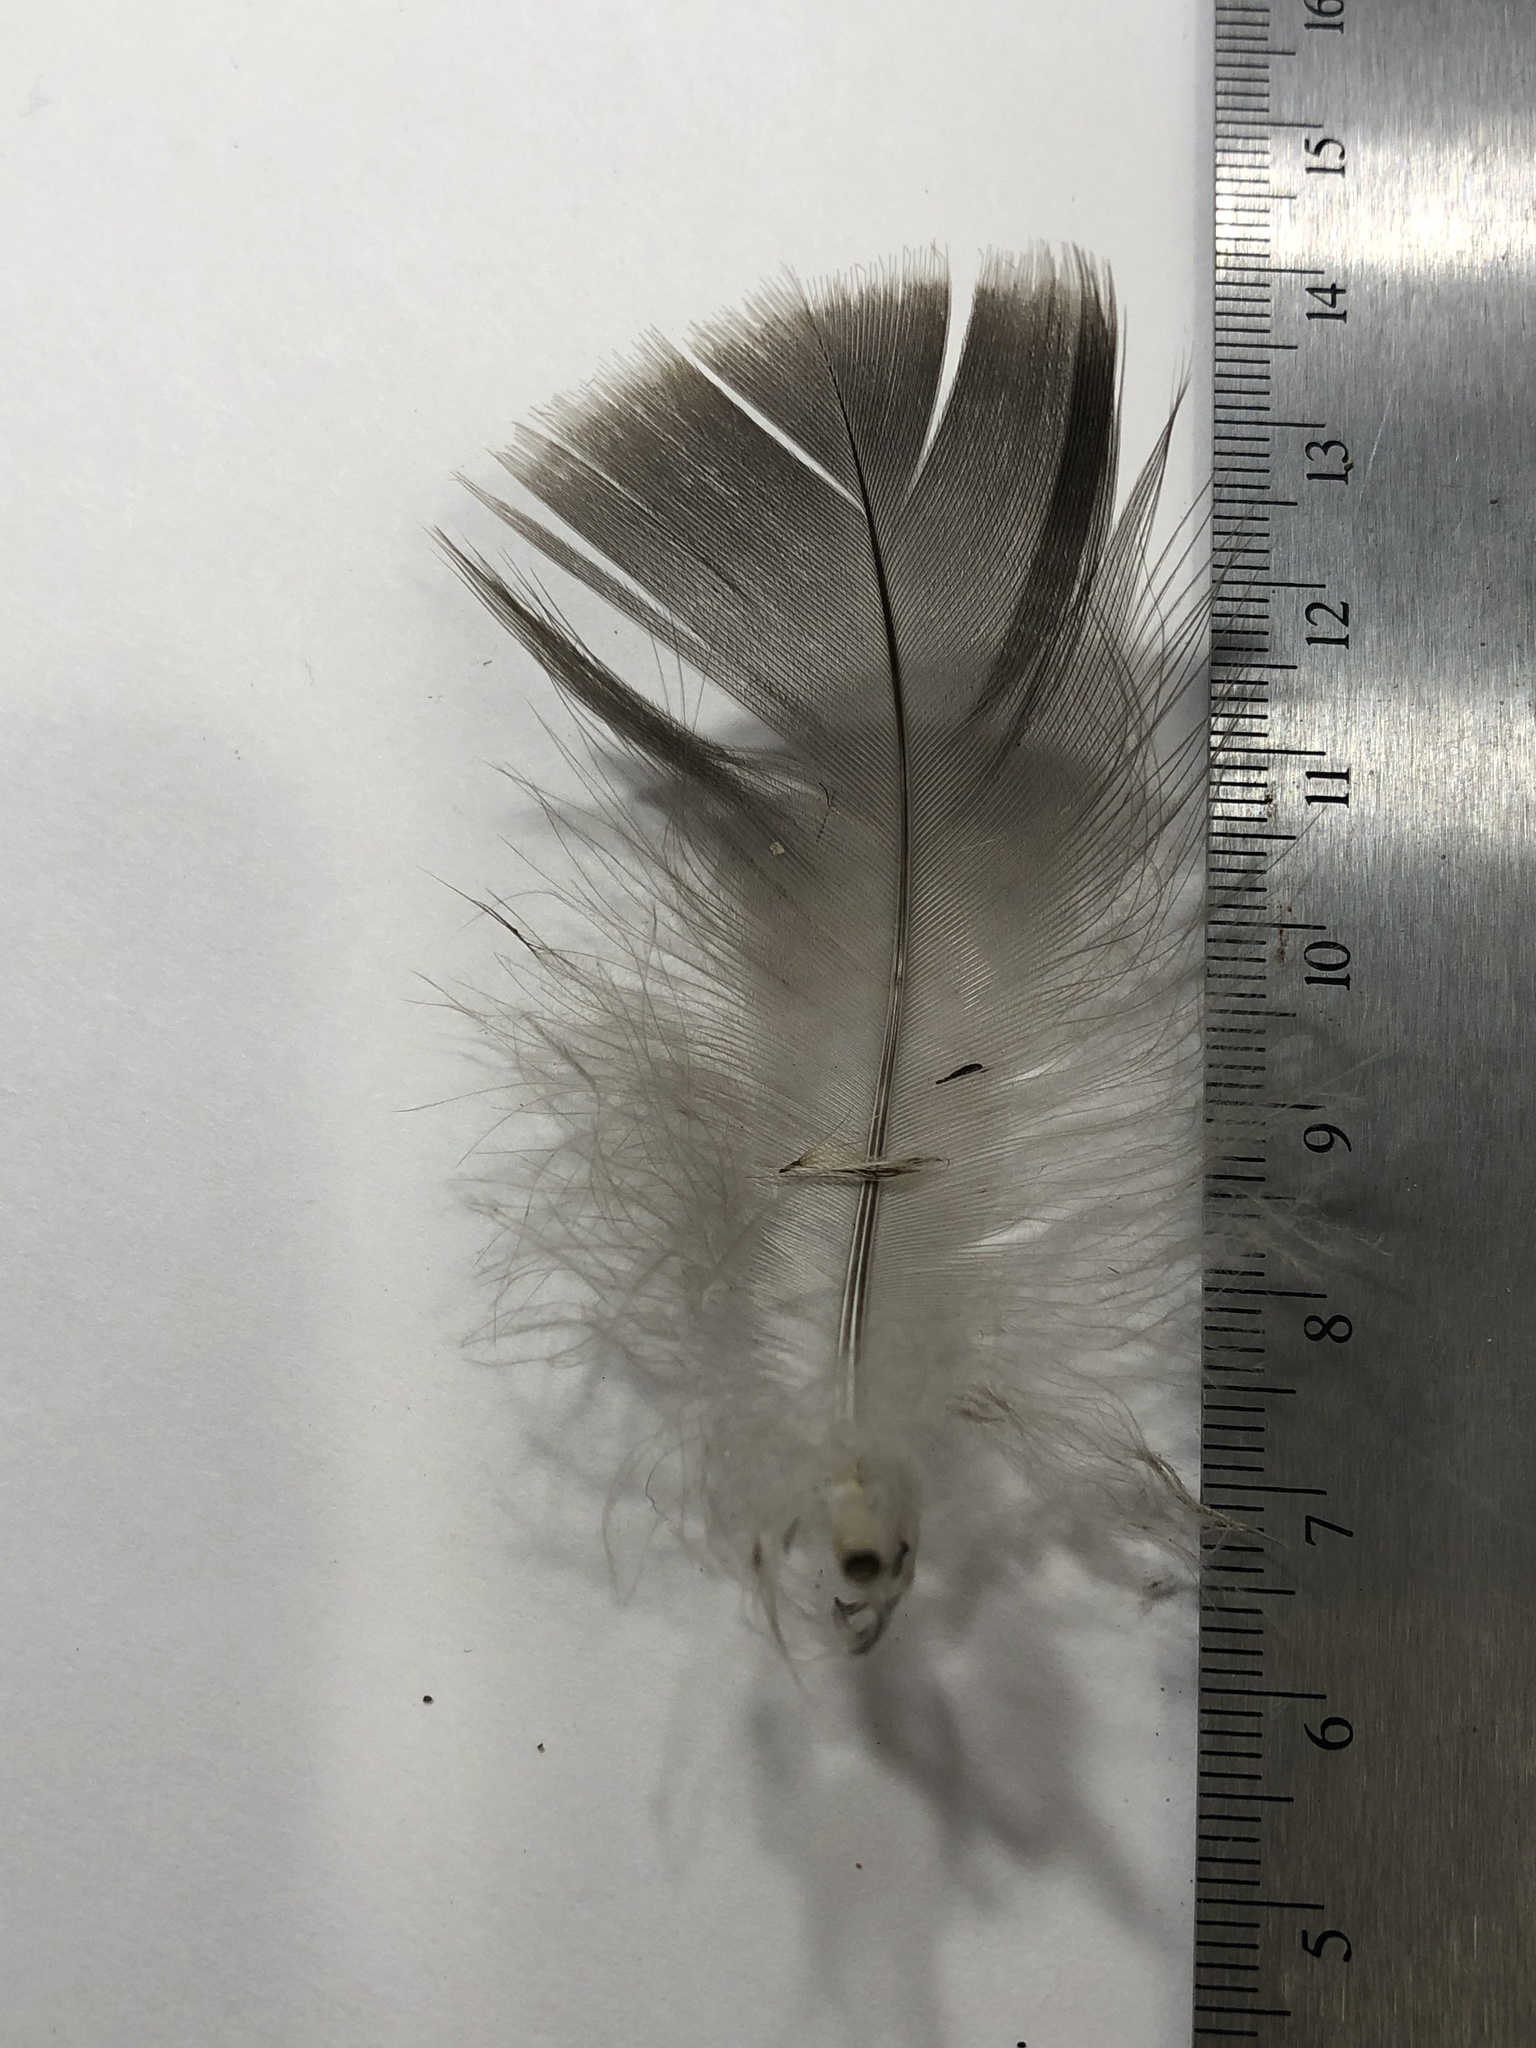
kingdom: Animalia
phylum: Chordata
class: Aves
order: Anseriformes
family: Anatidae
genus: Branta
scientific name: Branta canadensis
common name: Canada goose
